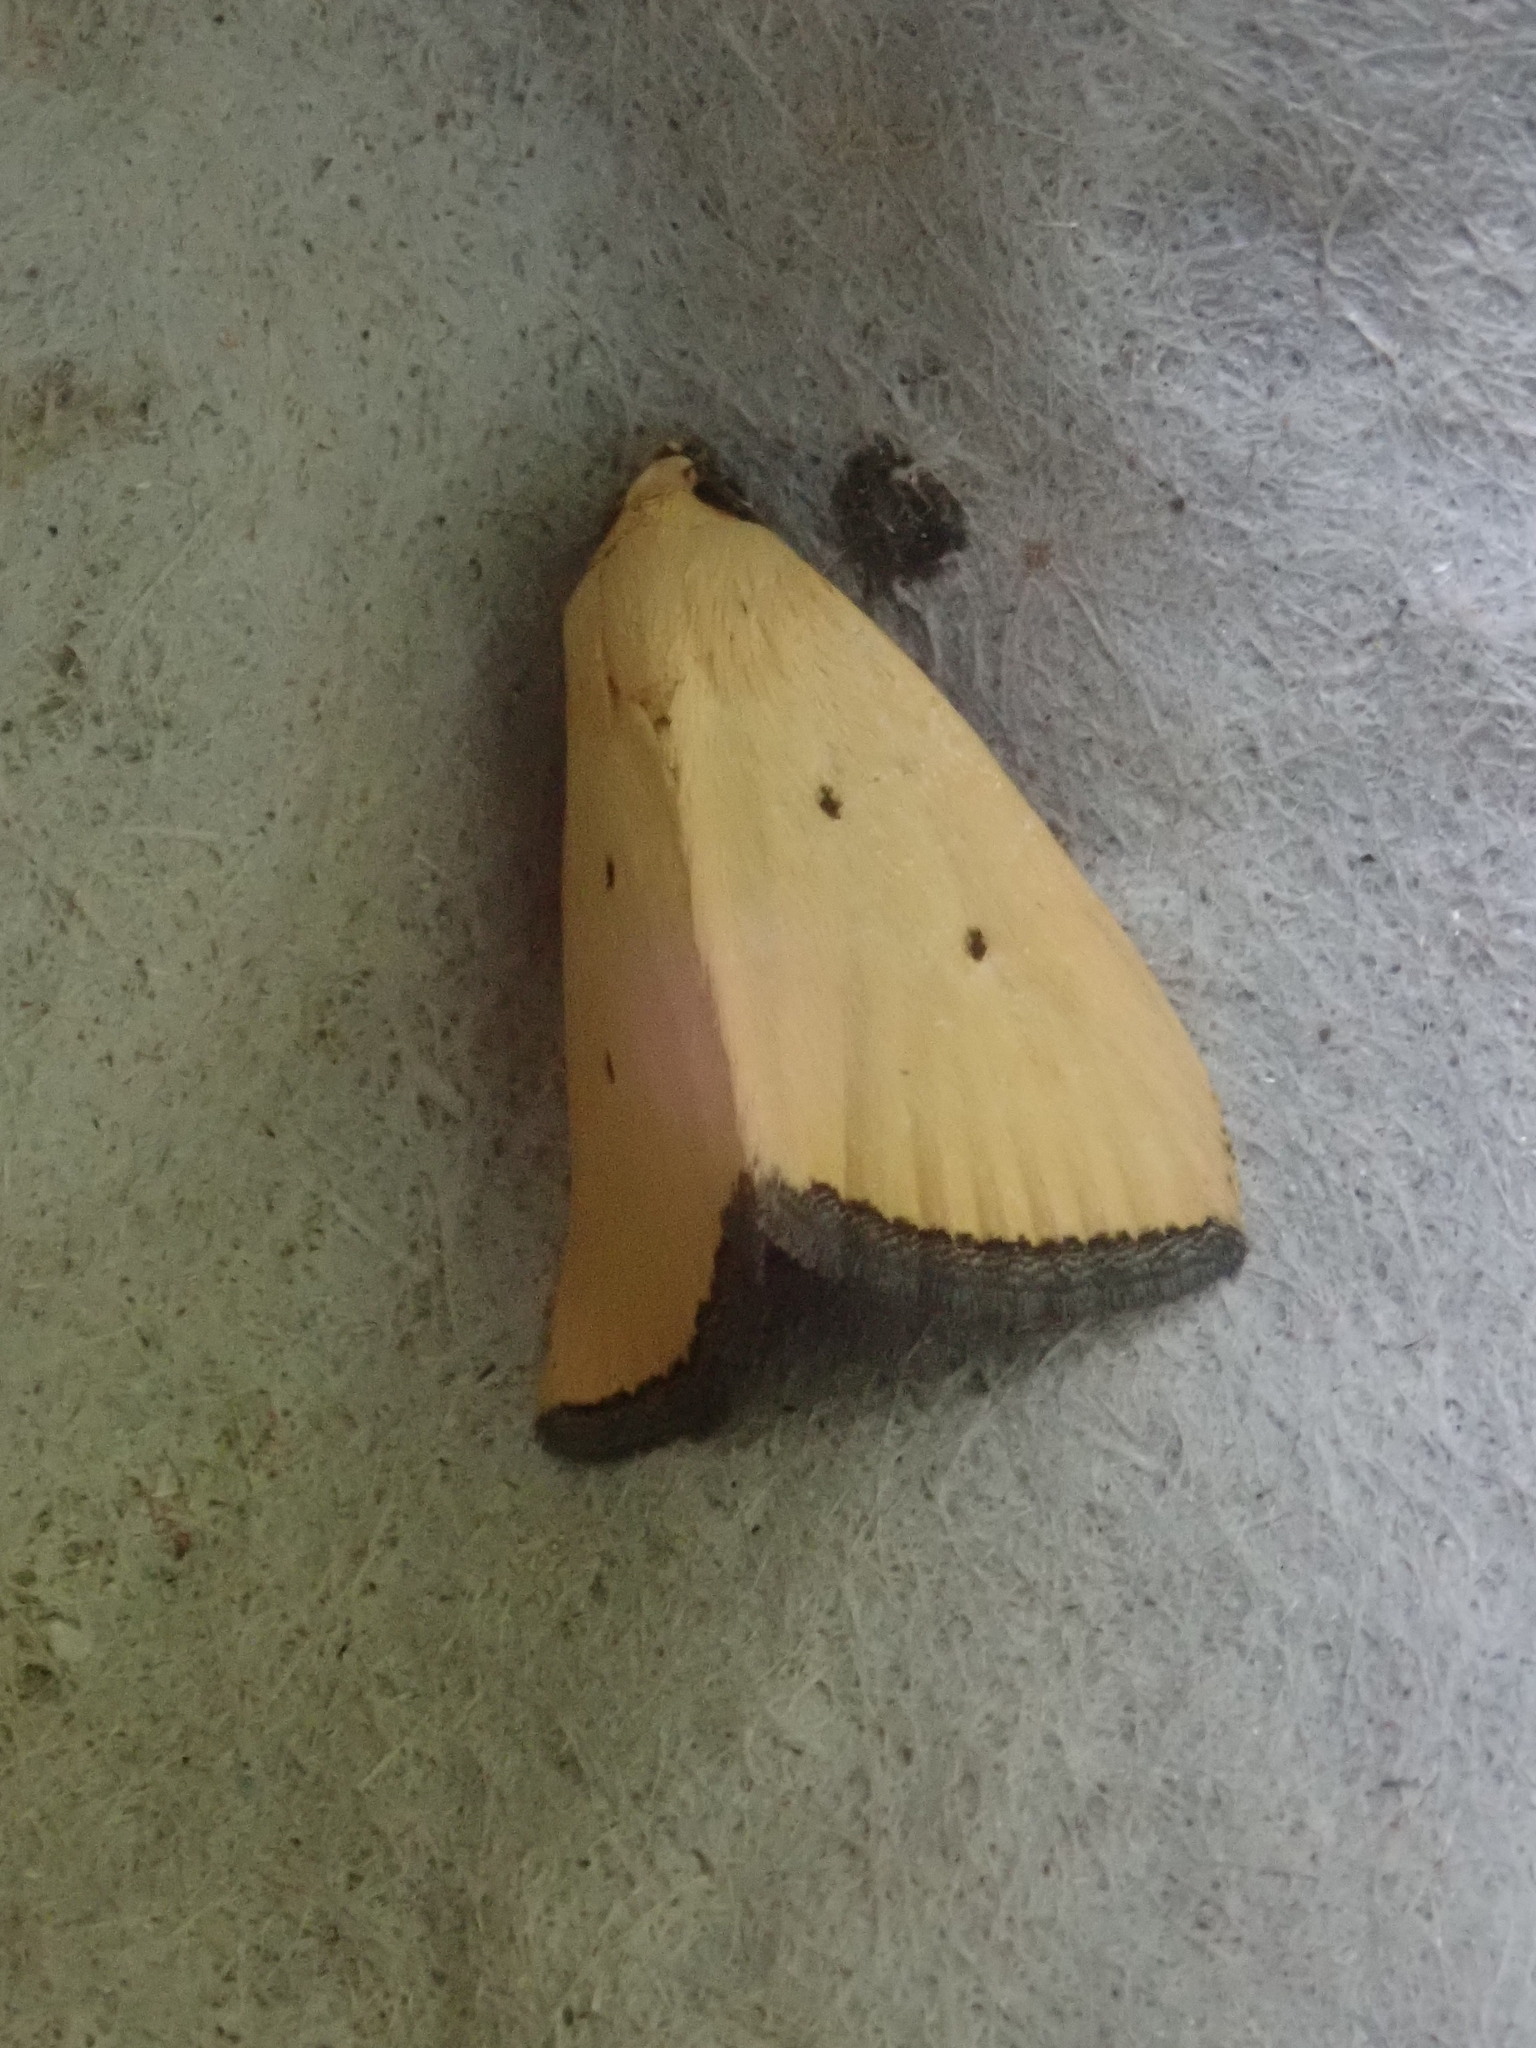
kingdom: Animalia
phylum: Arthropoda
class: Insecta
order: Lepidoptera
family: Noctuidae
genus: Marimatha
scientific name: Marimatha nigrofimbria
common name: Black-bordered lemon moth
